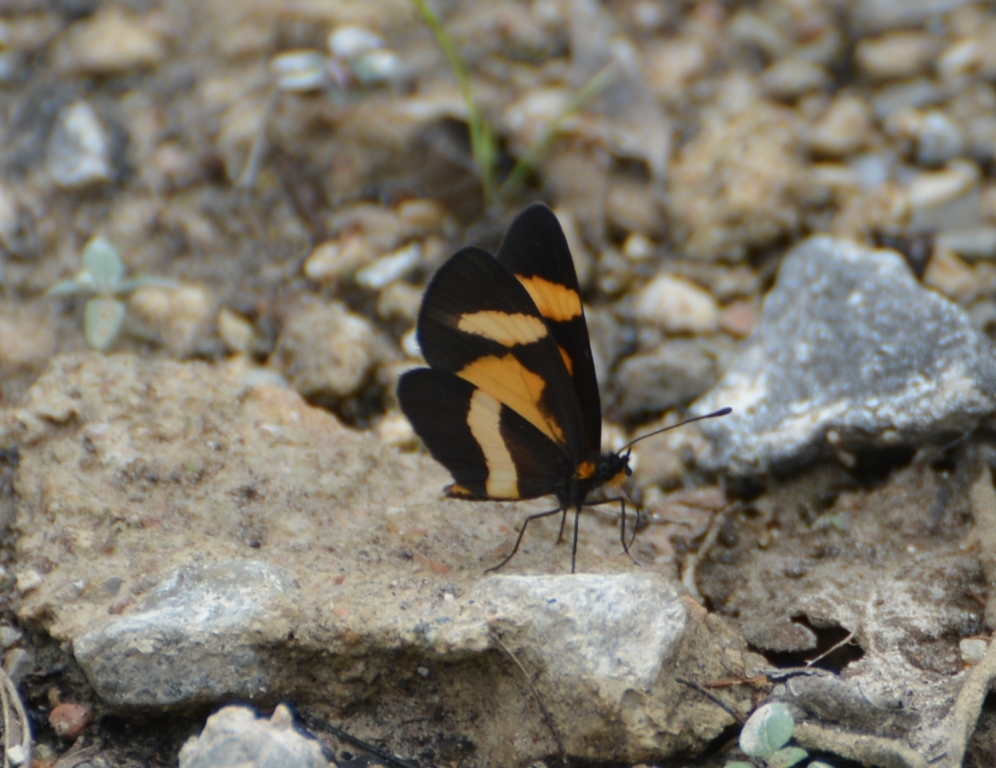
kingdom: Animalia
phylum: Arthropoda
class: Insecta
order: Lepidoptera
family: Nymphalidae
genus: Microtia
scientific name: Microtia elva
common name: Elf
